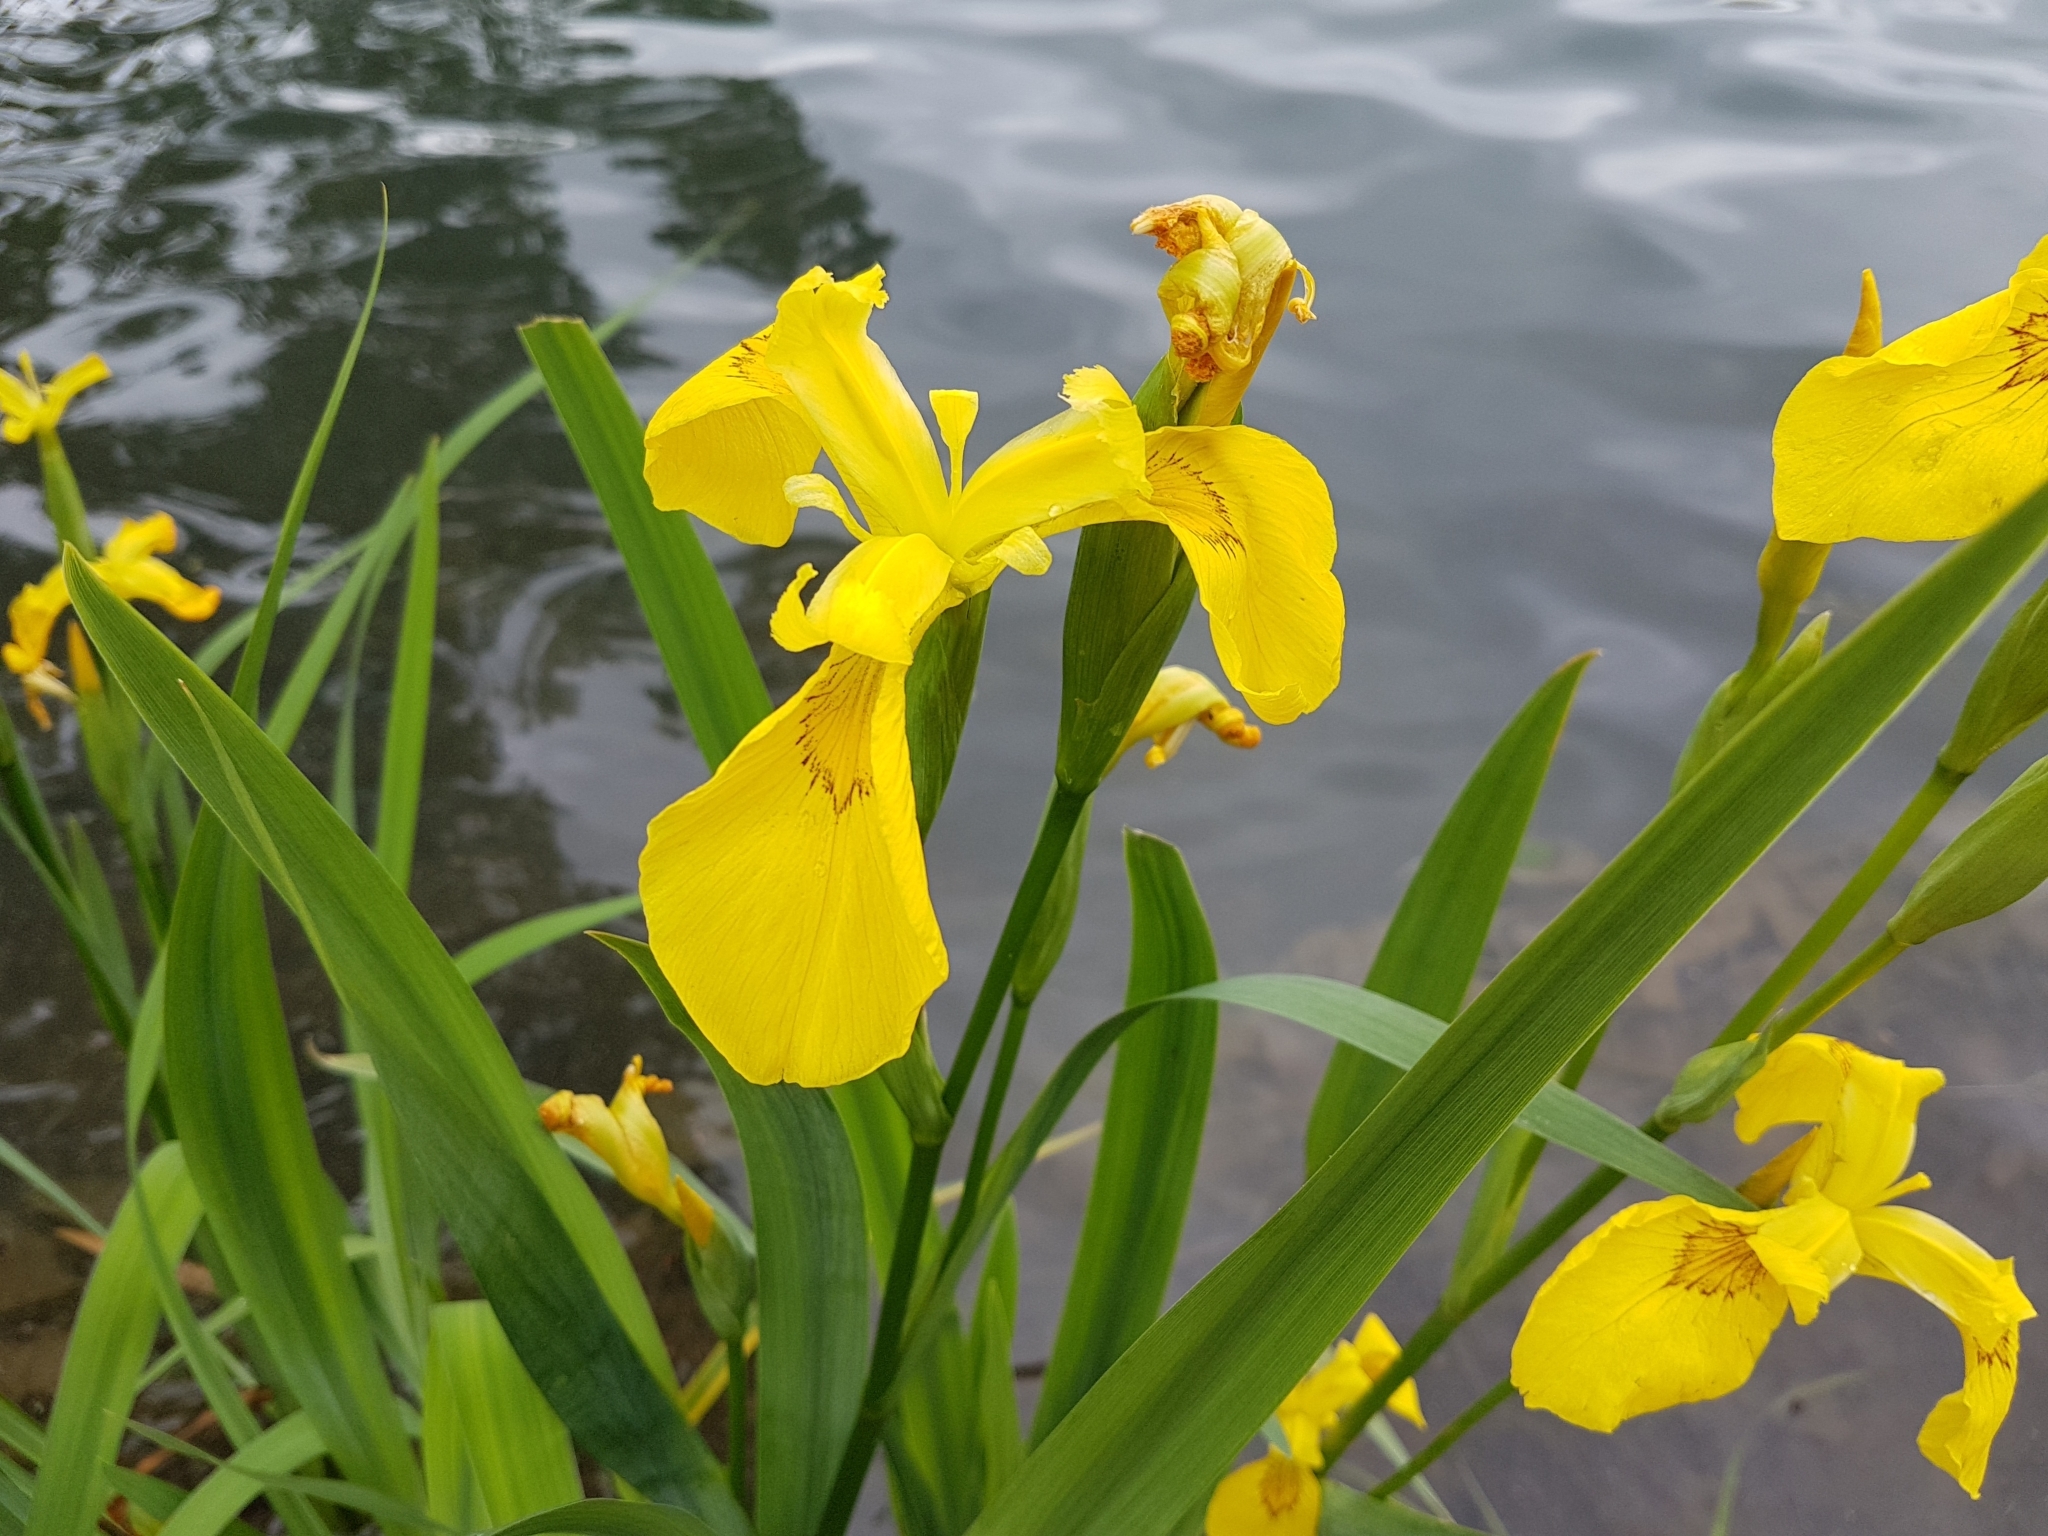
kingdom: Plantae
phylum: Tracheophyta
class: Liliopsida
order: Asparagales
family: Iridaceae
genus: Iris
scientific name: Iris pseudacorus
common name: Yellow flag
